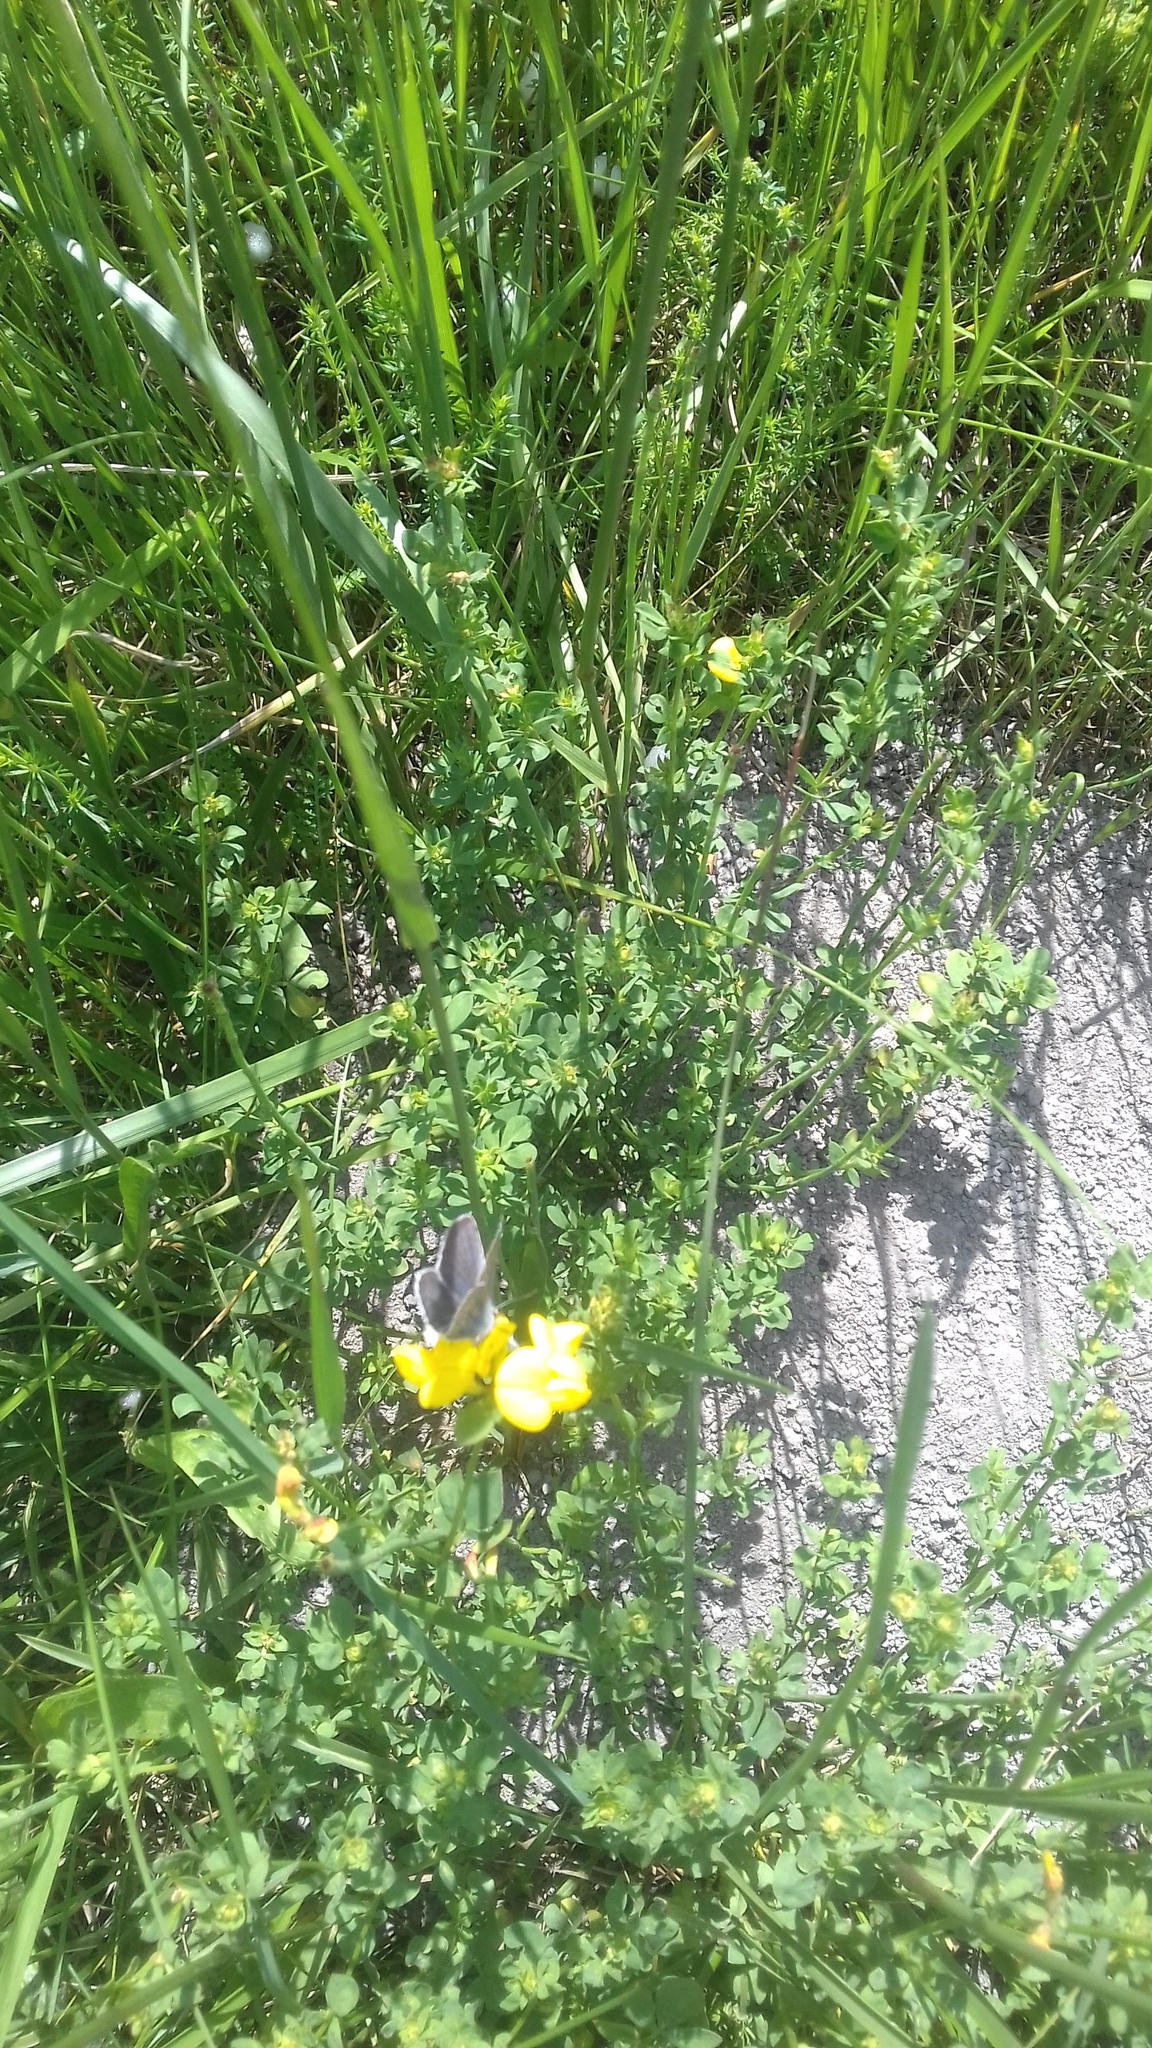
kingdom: Plantae
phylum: Tracheophyta
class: Magnoliopsida
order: Fabales
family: Fabaceae
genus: Lotus
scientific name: Lotus corniculatus
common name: Common bird's-foot-trefoil
